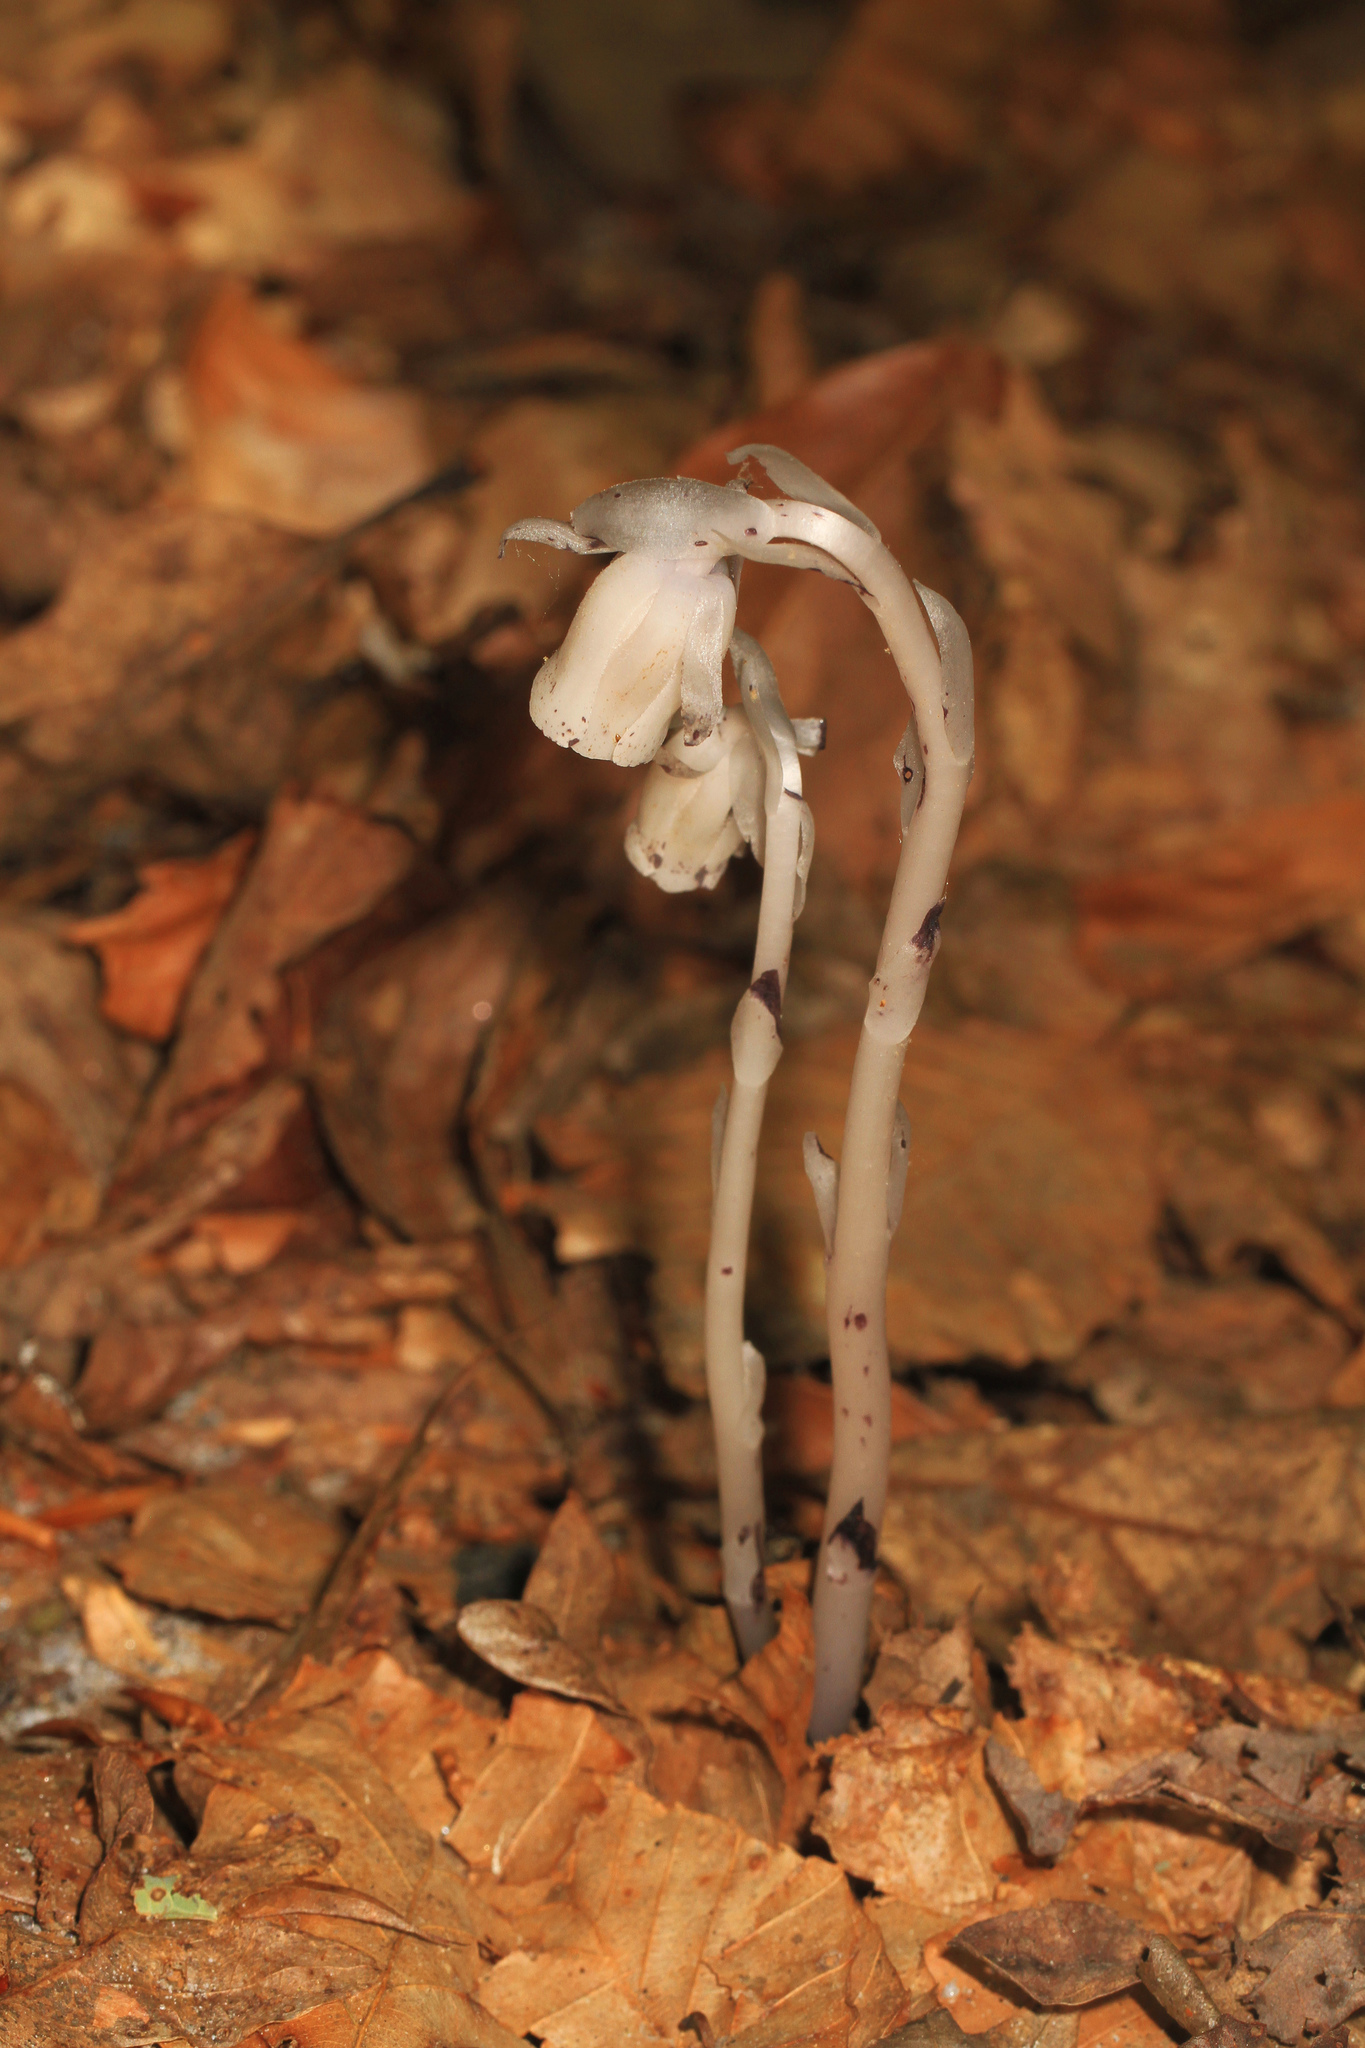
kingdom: Plantae
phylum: Tracheophyta
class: Magnoliopsida
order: Ericales
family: Ericaceae
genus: Monotropa
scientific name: Monotropa uniflora
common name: Convulsion root
